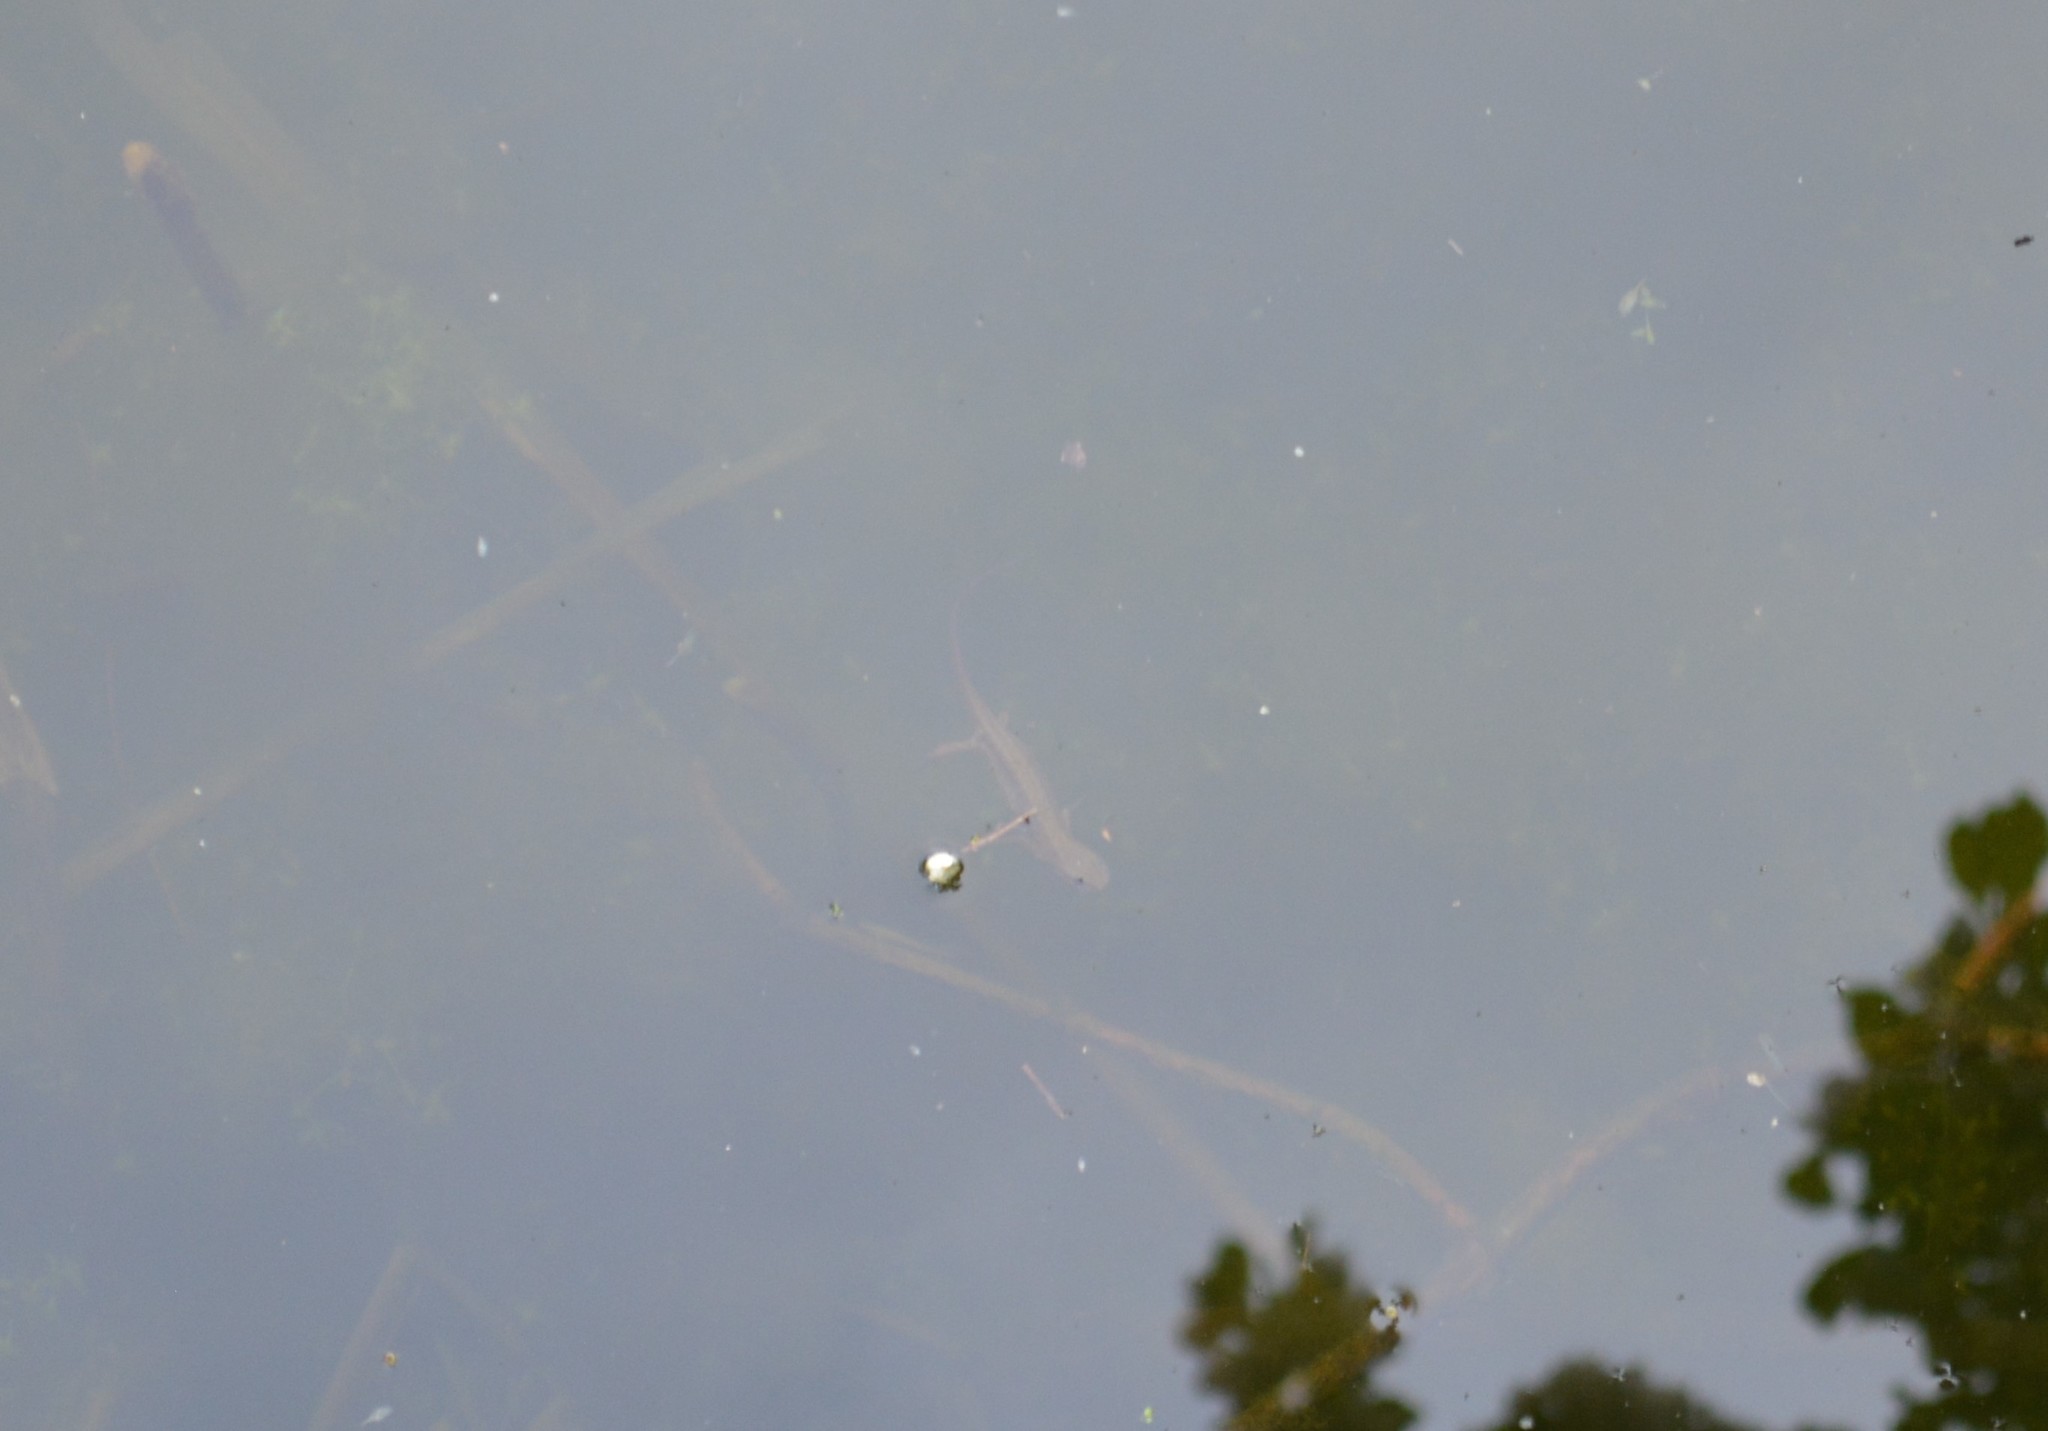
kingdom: Animalia
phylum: Chordata
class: Amphibia
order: Caudata
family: Salamandridae
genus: Lissotriton
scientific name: Lissotriton vulgaris
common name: Smooth newt
